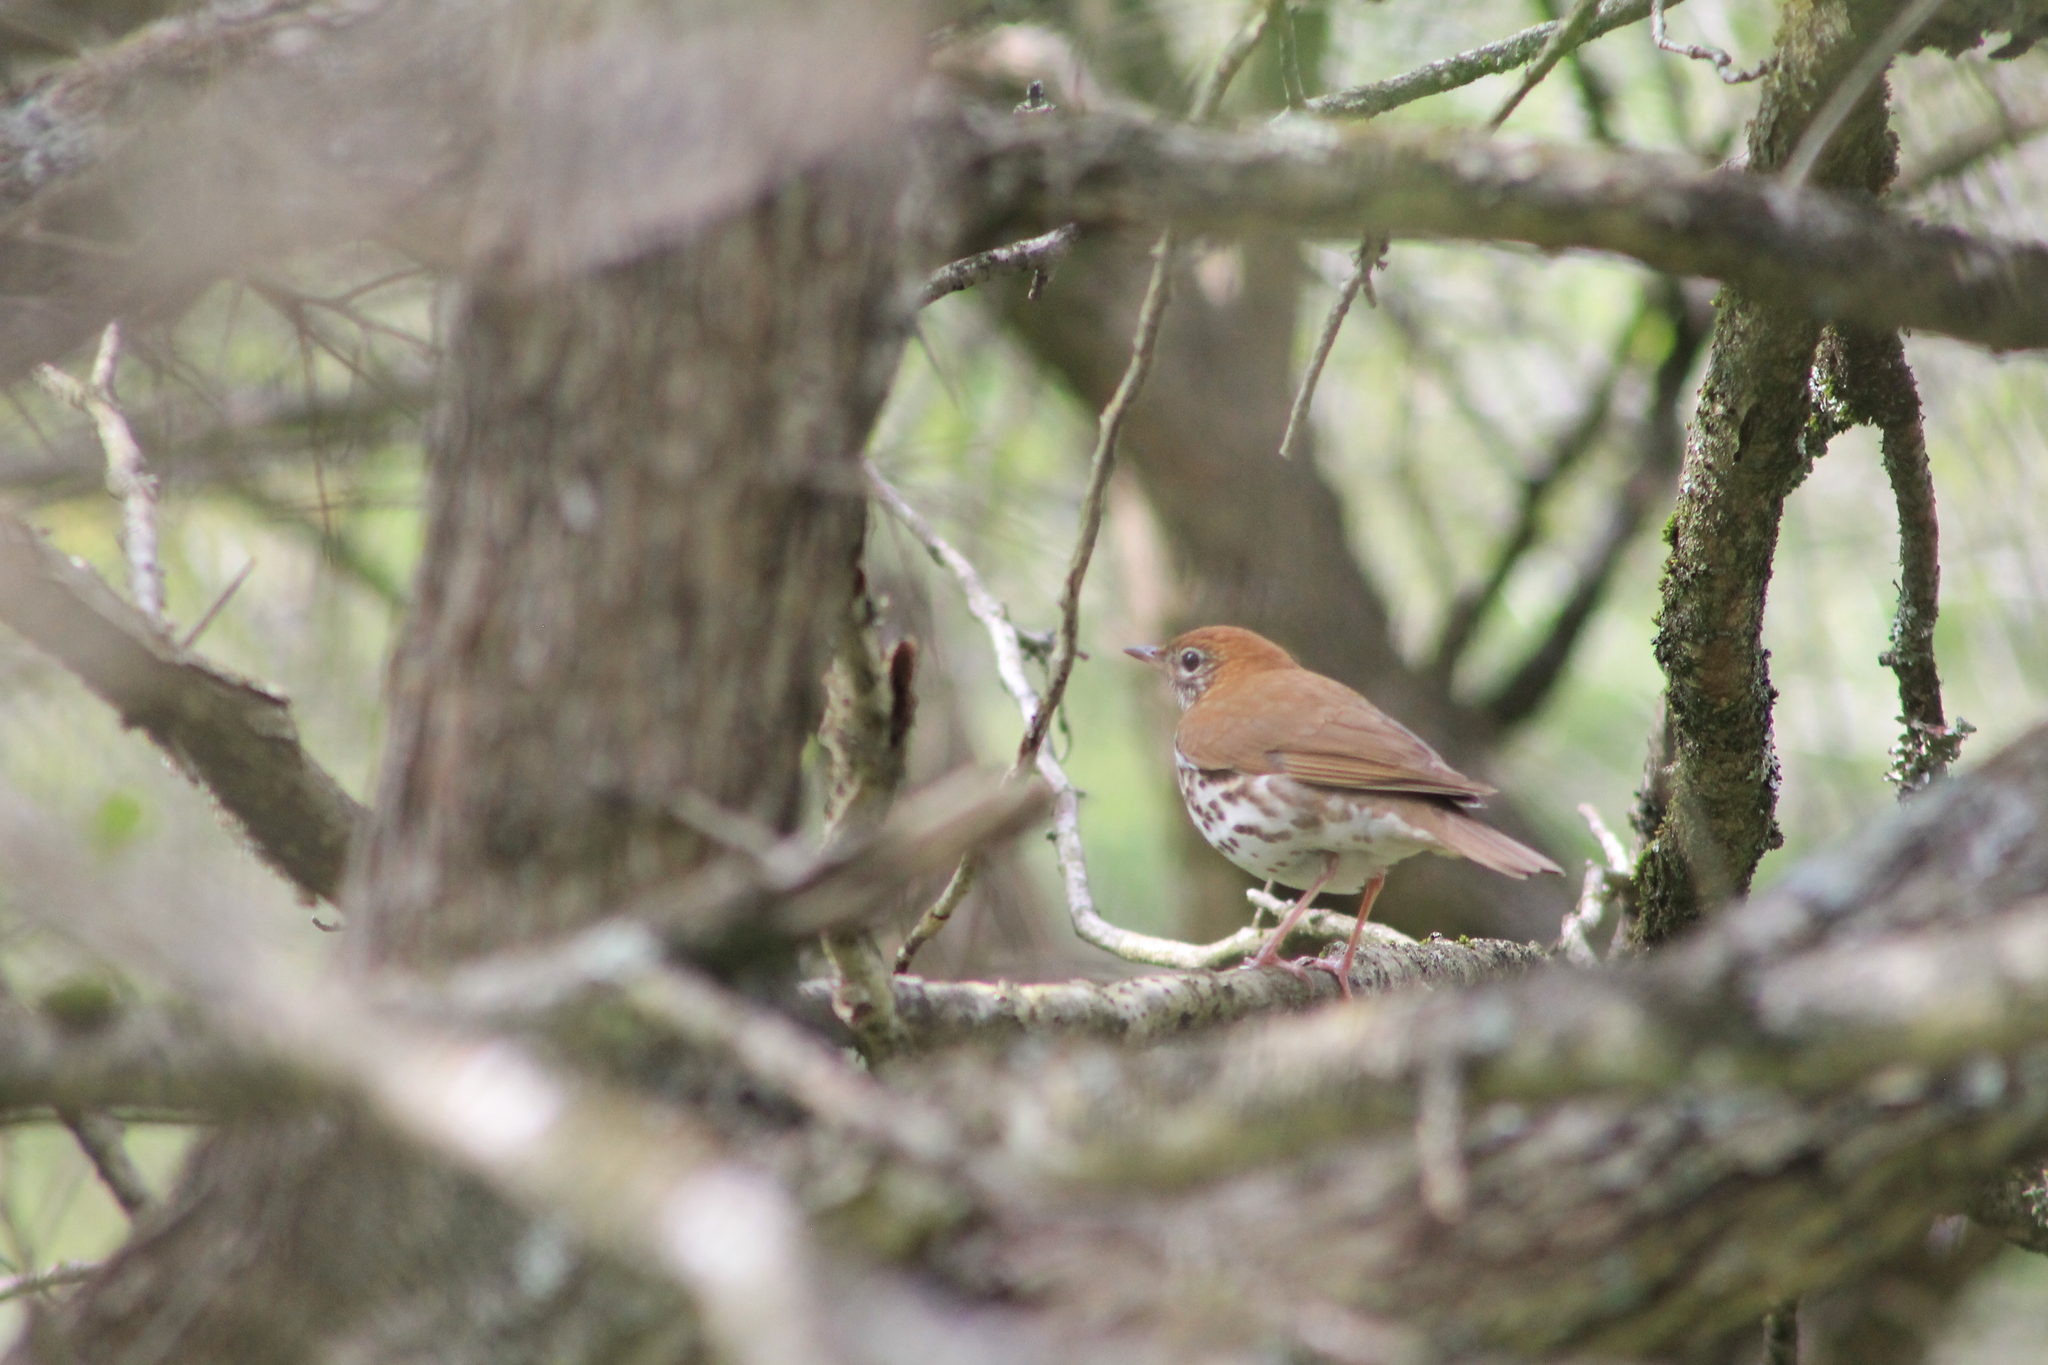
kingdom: Animalia
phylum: Chordata
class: Aves
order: Passeriformes
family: Turdidae
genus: Hylocichla
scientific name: Hylocichla mustelina
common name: Wood thrush
